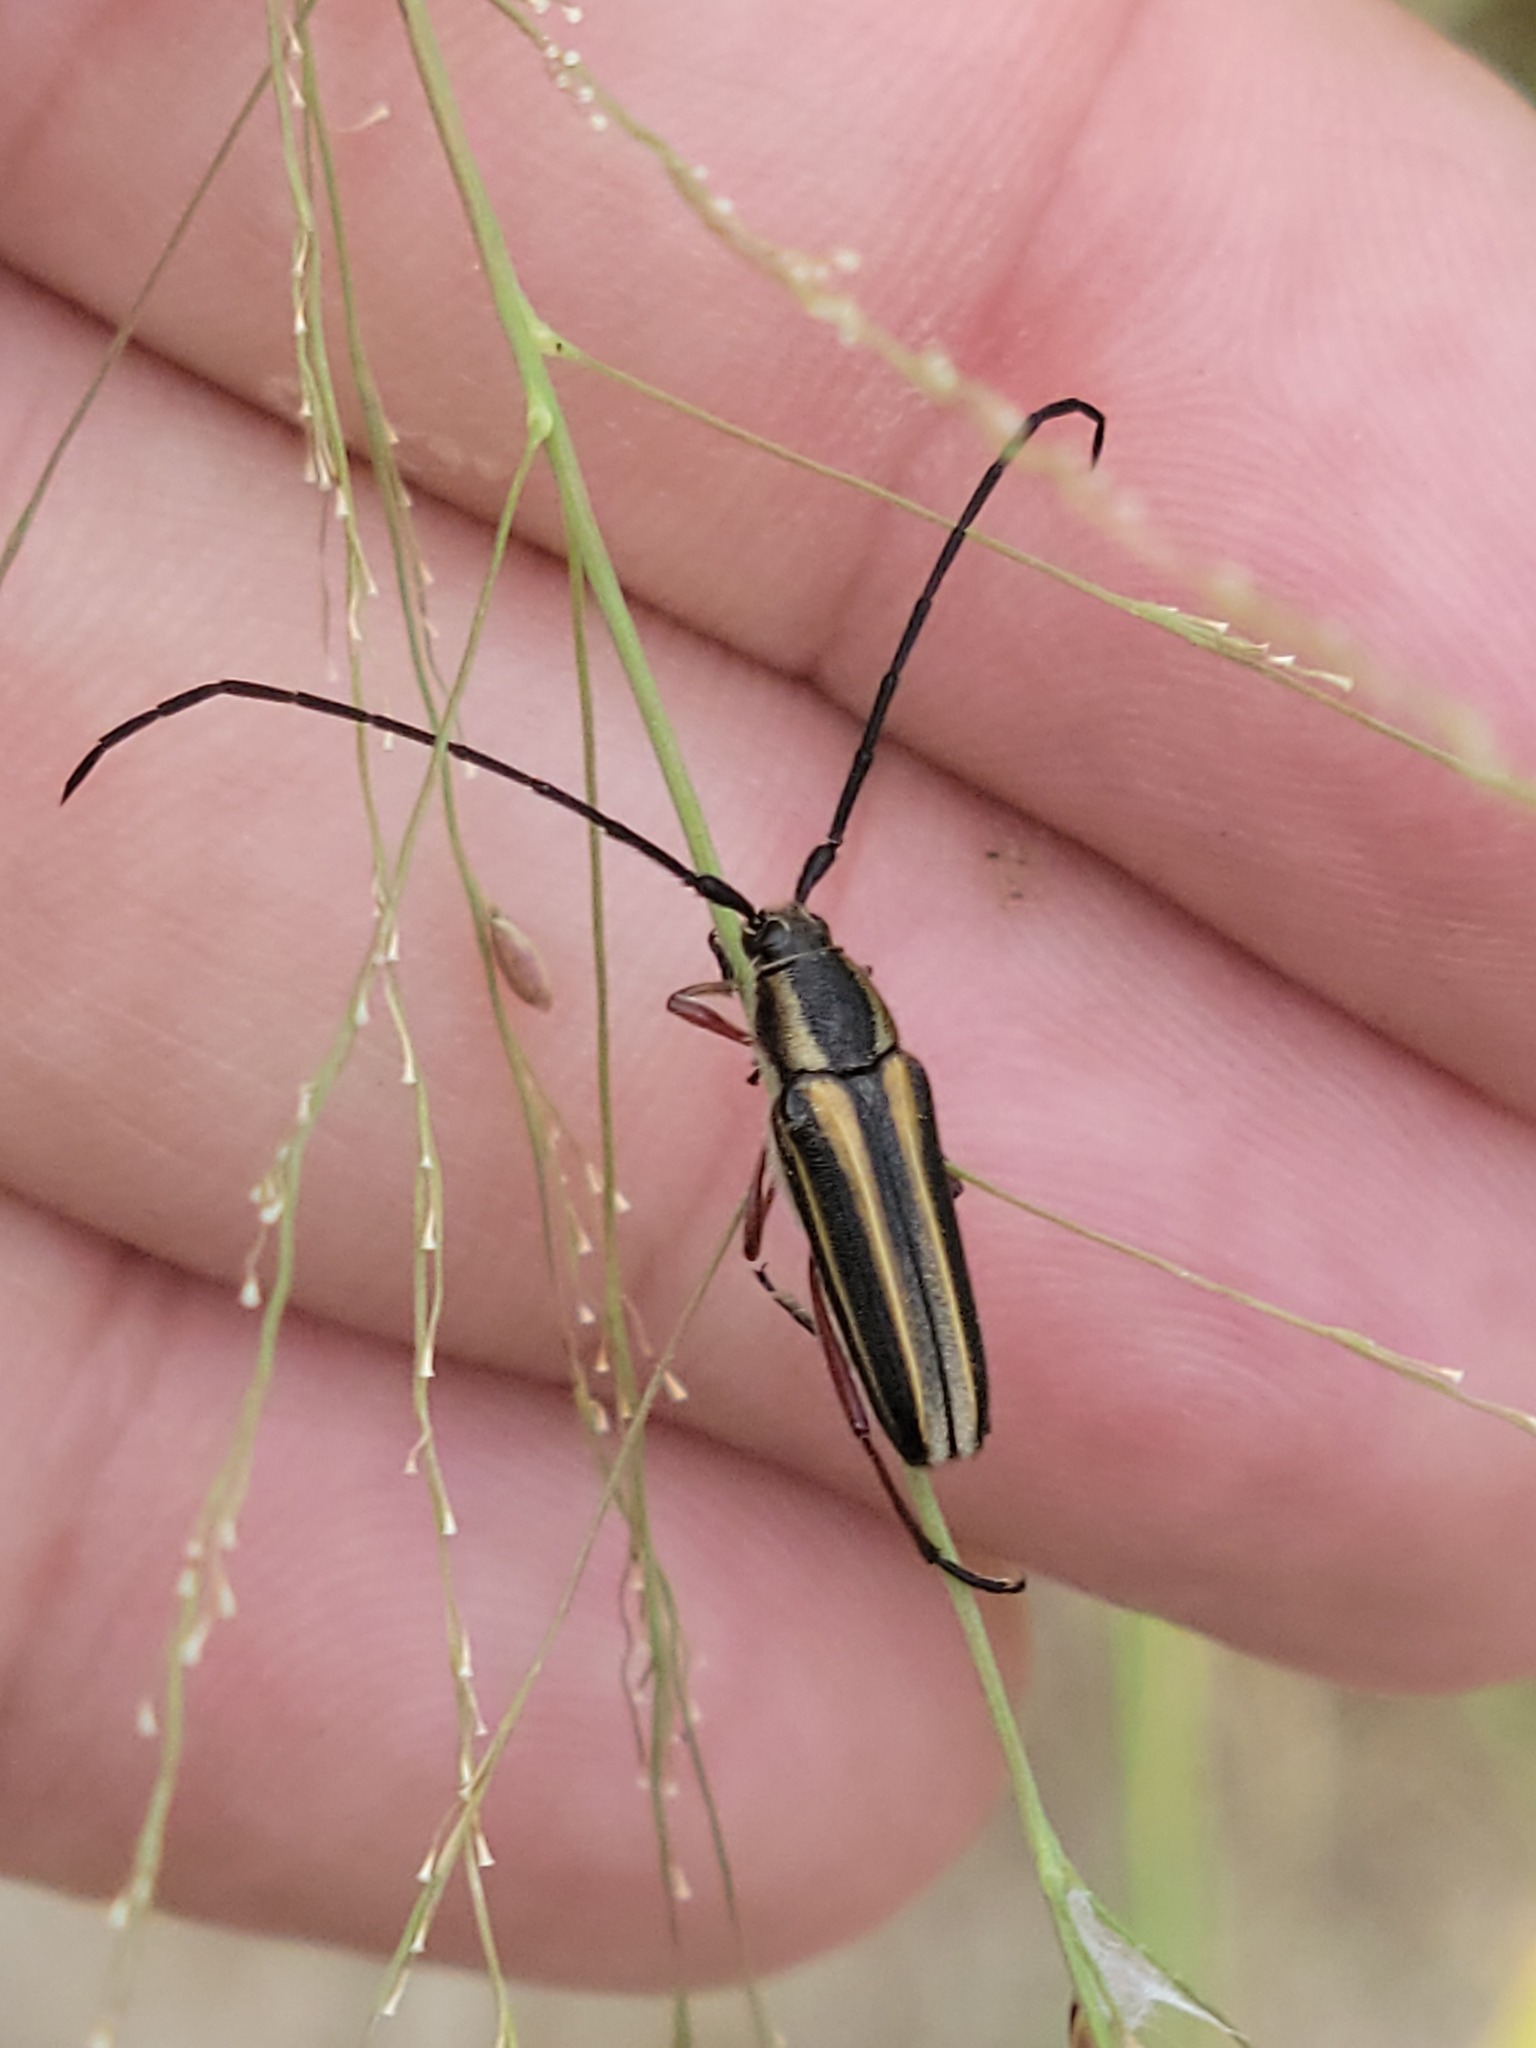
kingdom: Animalia
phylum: Arthropoda
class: Insecta
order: Coleoptera
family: Cerambycidae
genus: Sphaenothecus
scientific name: Sphaenothecus bilineatus
